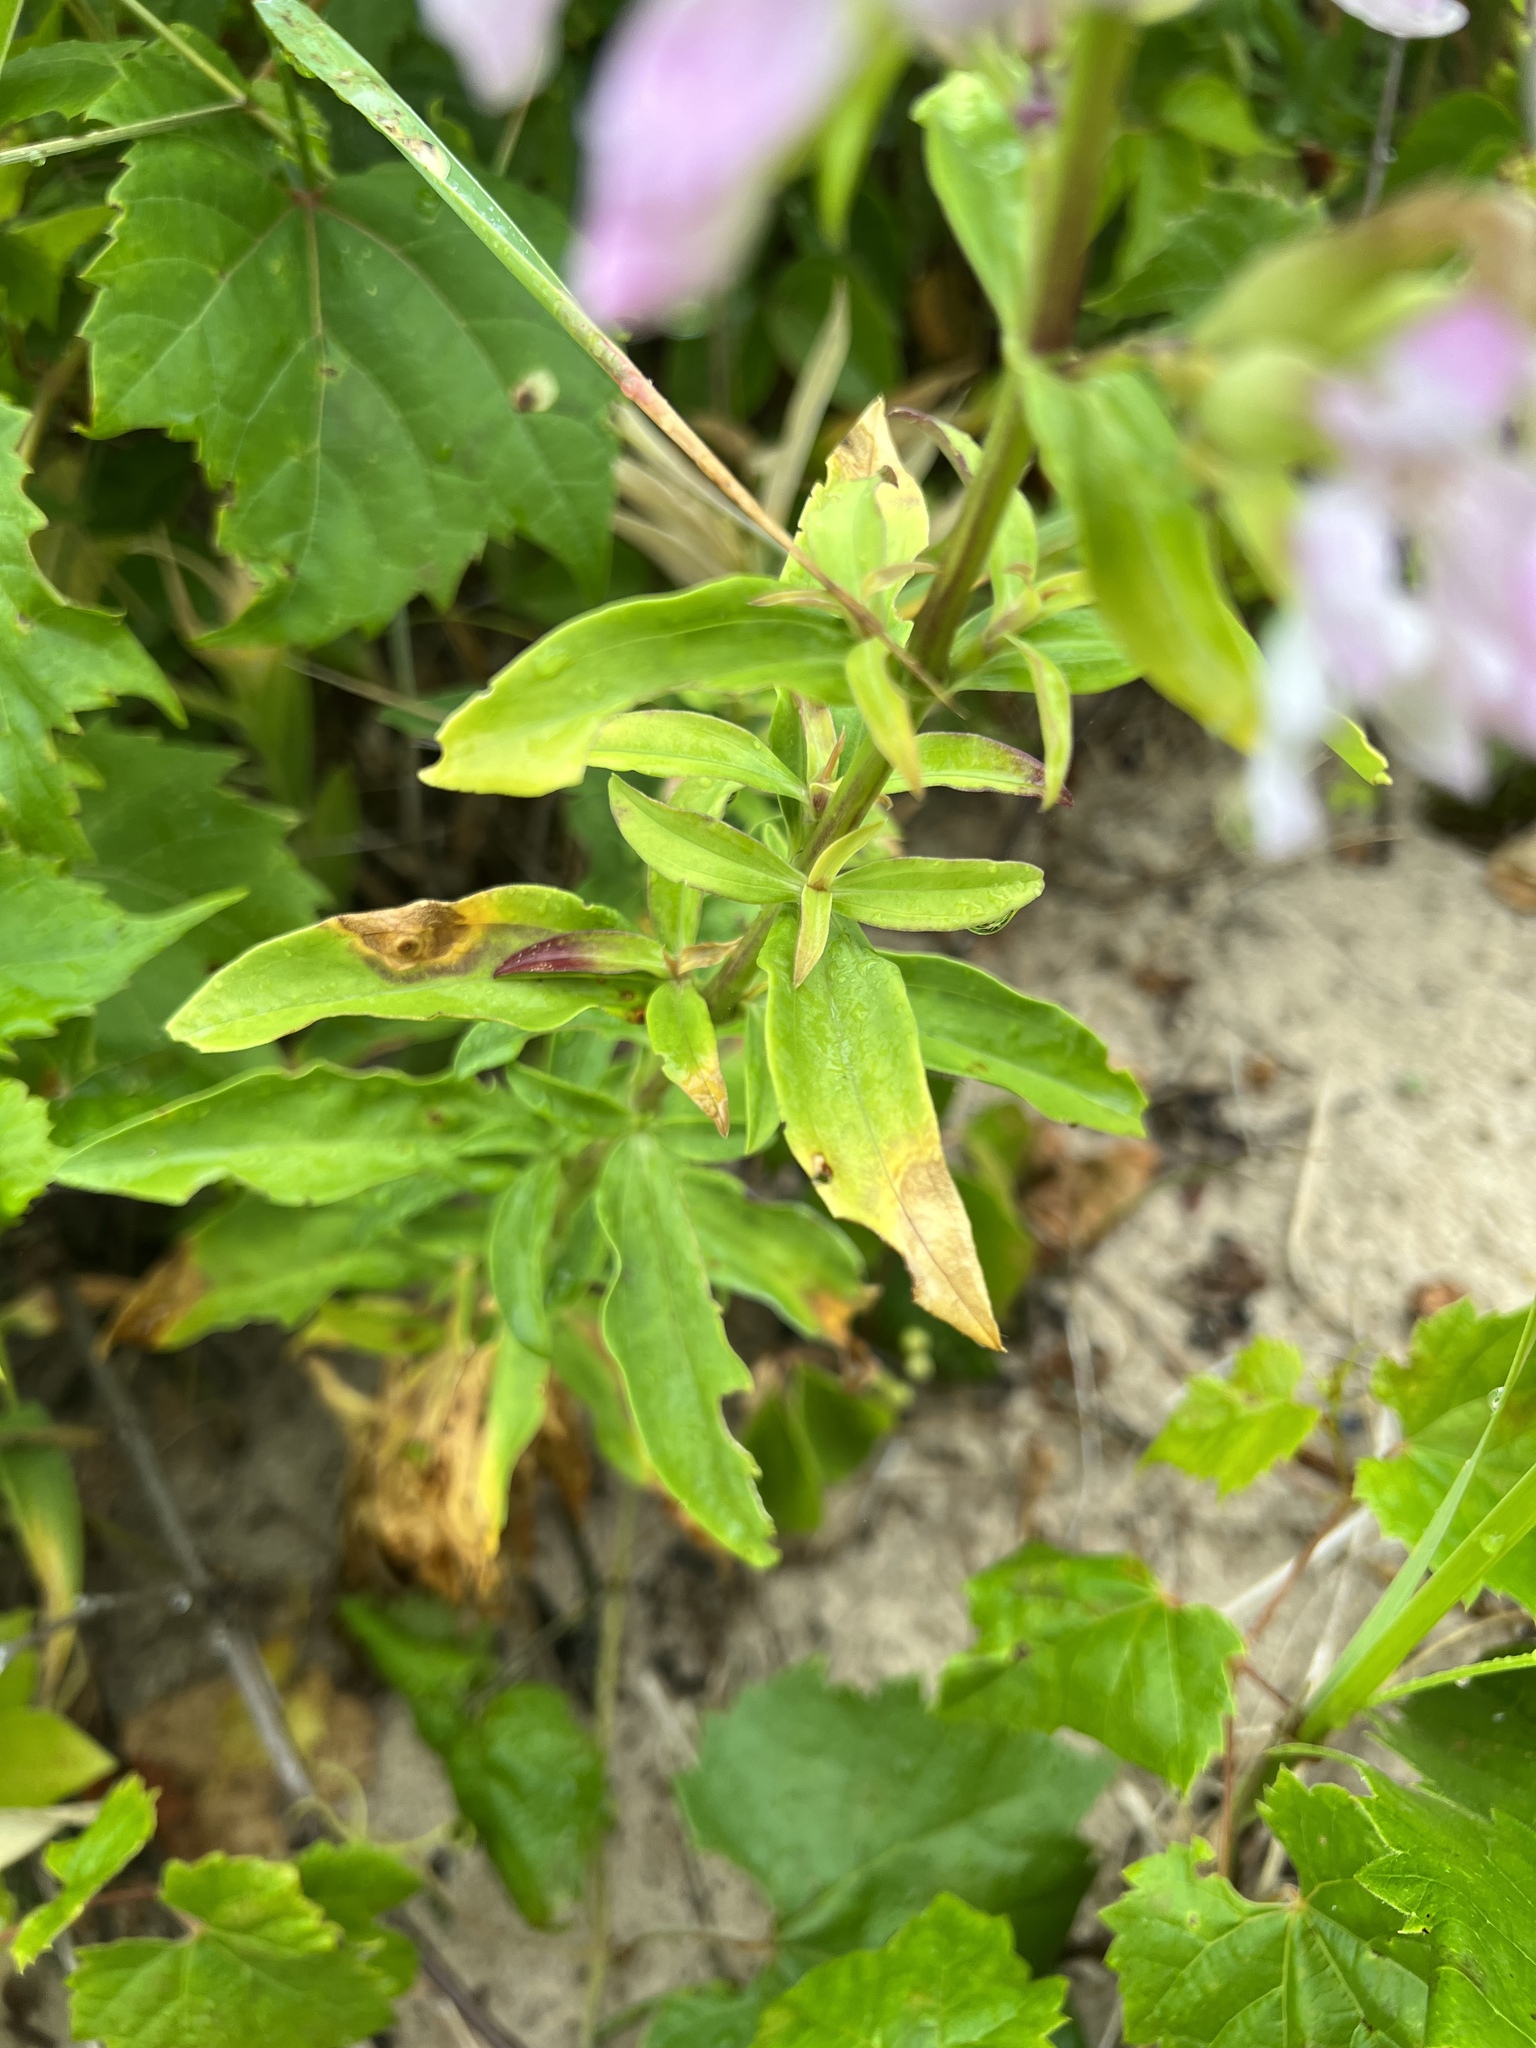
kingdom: Plantae
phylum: Tracheophyta
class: Magnoliopsida
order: Caryophyllales
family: Caryophyllaceae
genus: Saponaria
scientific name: Saponaria officinalis
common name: Soapwort
